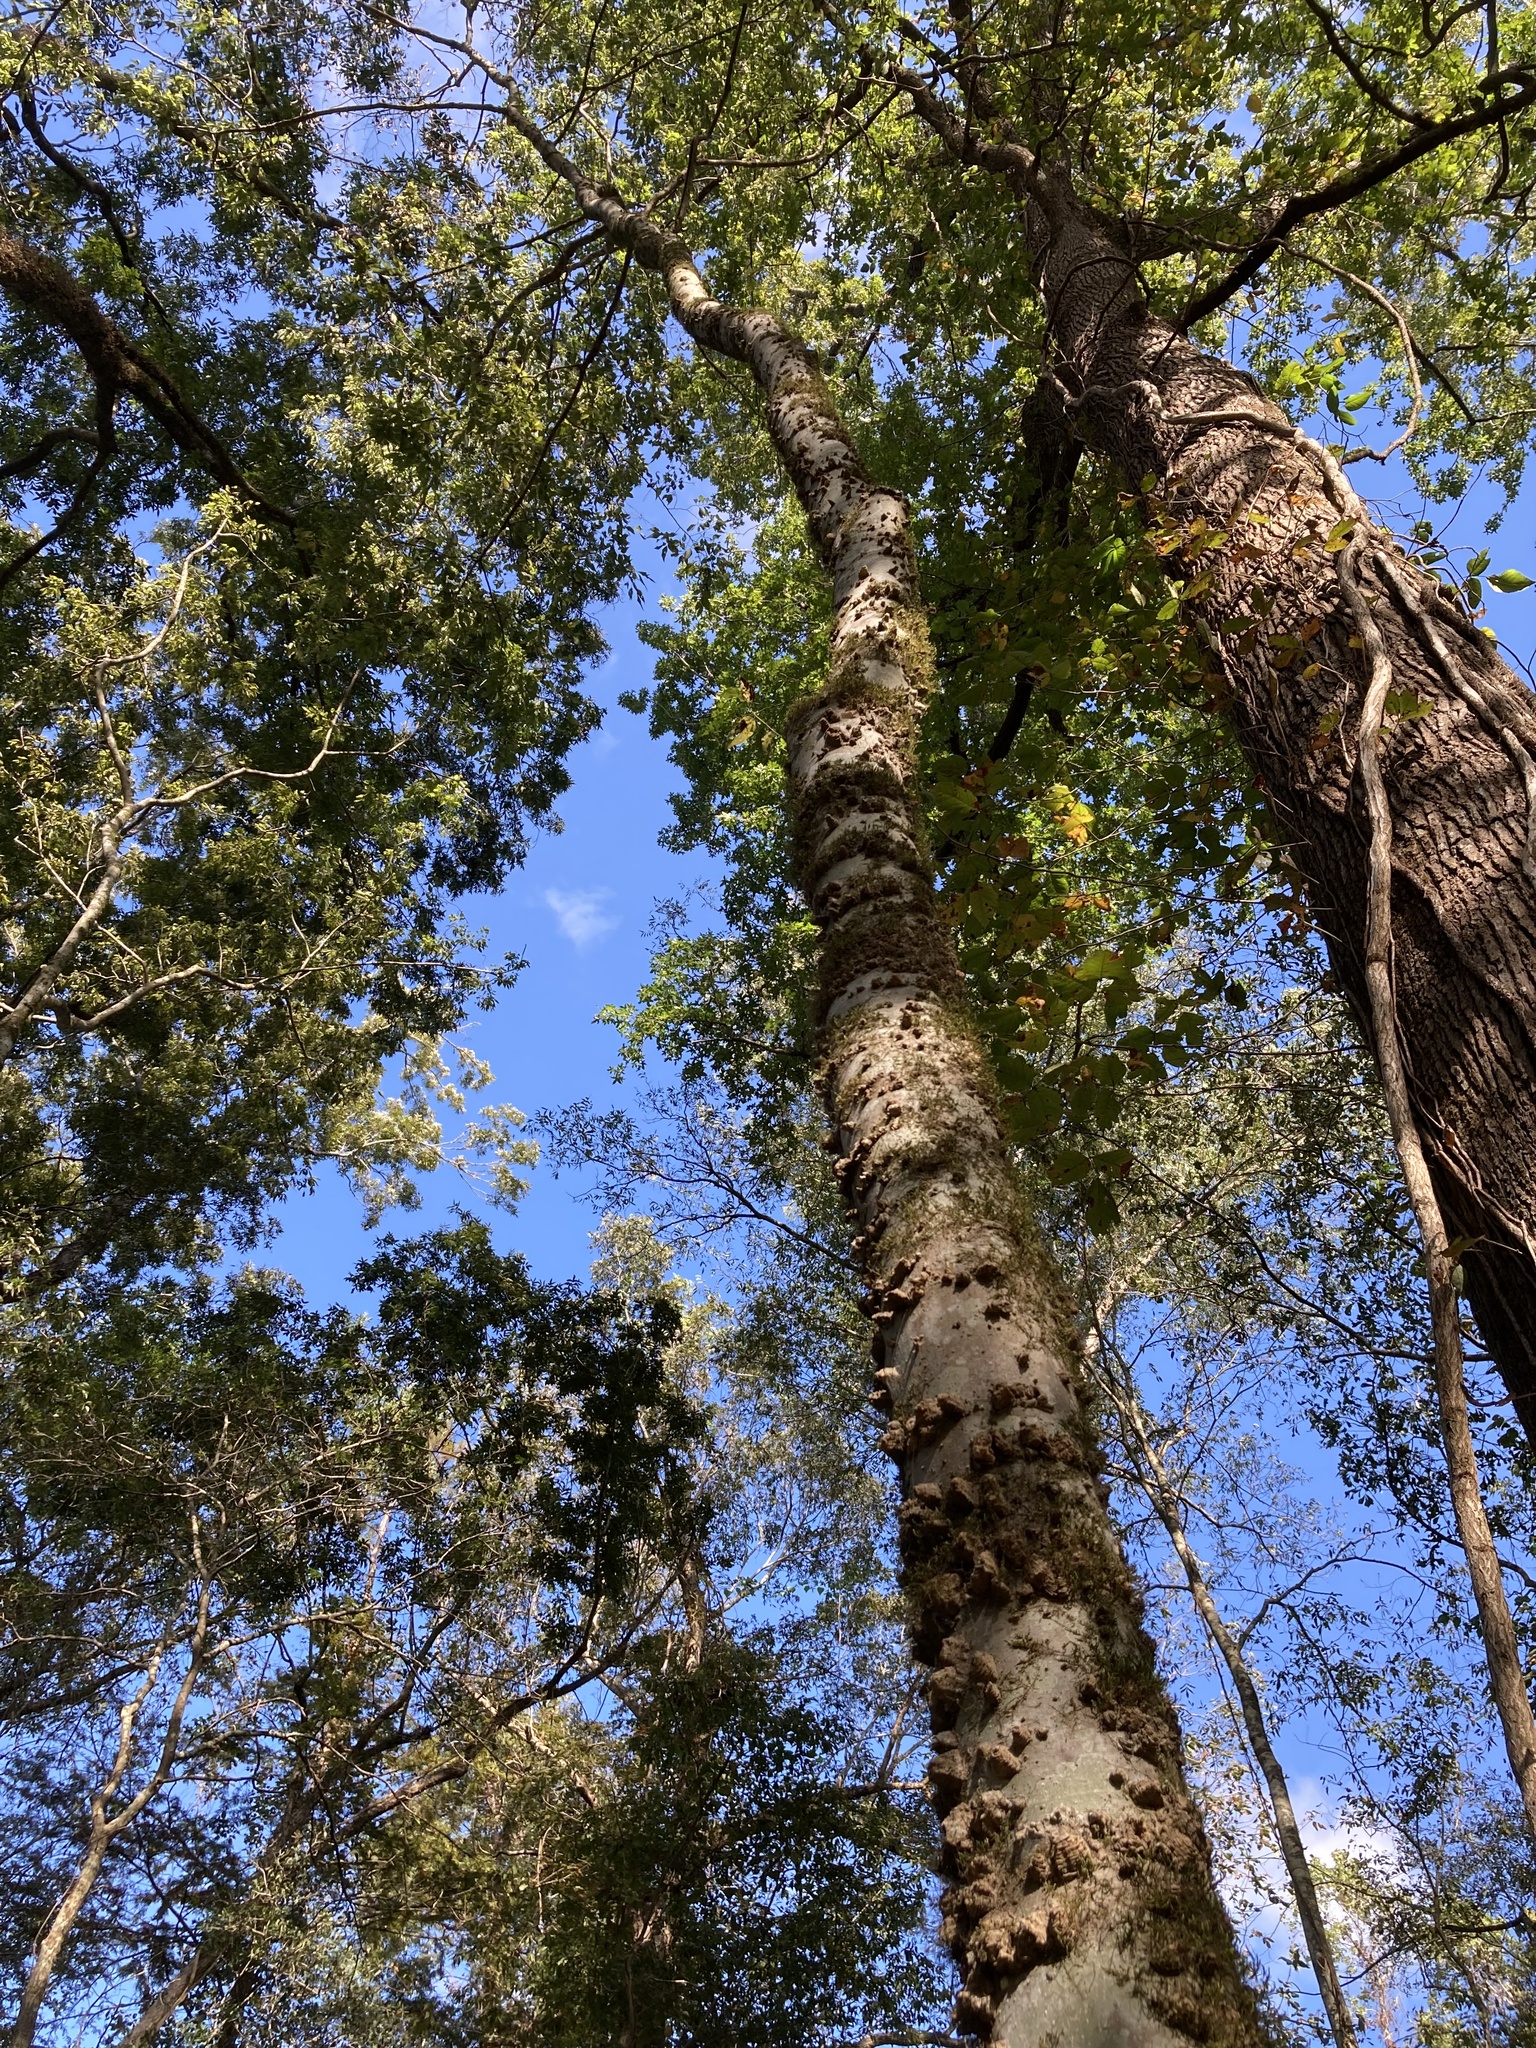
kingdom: Plantae
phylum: Tracheophyta
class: Magnoliopsida
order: Rosales
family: Cannabaceae
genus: Celtis
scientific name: Celtis laevigata
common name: Sugarberry
